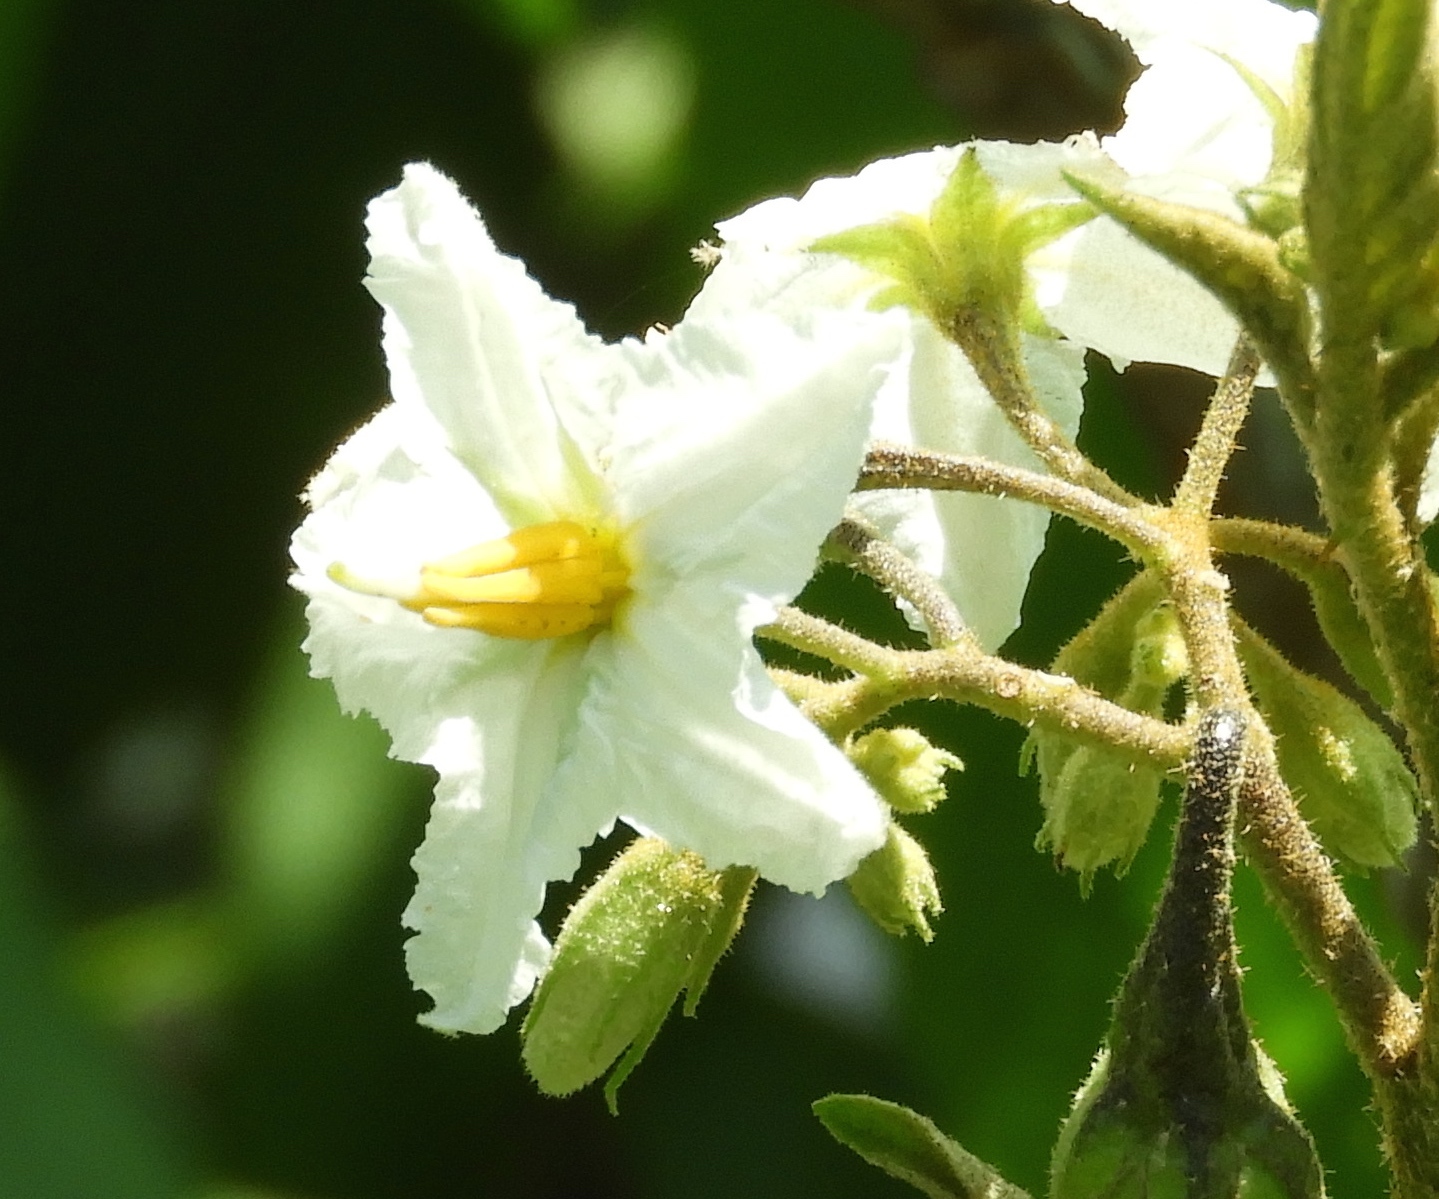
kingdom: Plantae
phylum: Tracheophyta
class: Magnoliopsida
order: Solanales
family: Solanaceae
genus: Solanum
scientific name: Solanum ferrugineum
